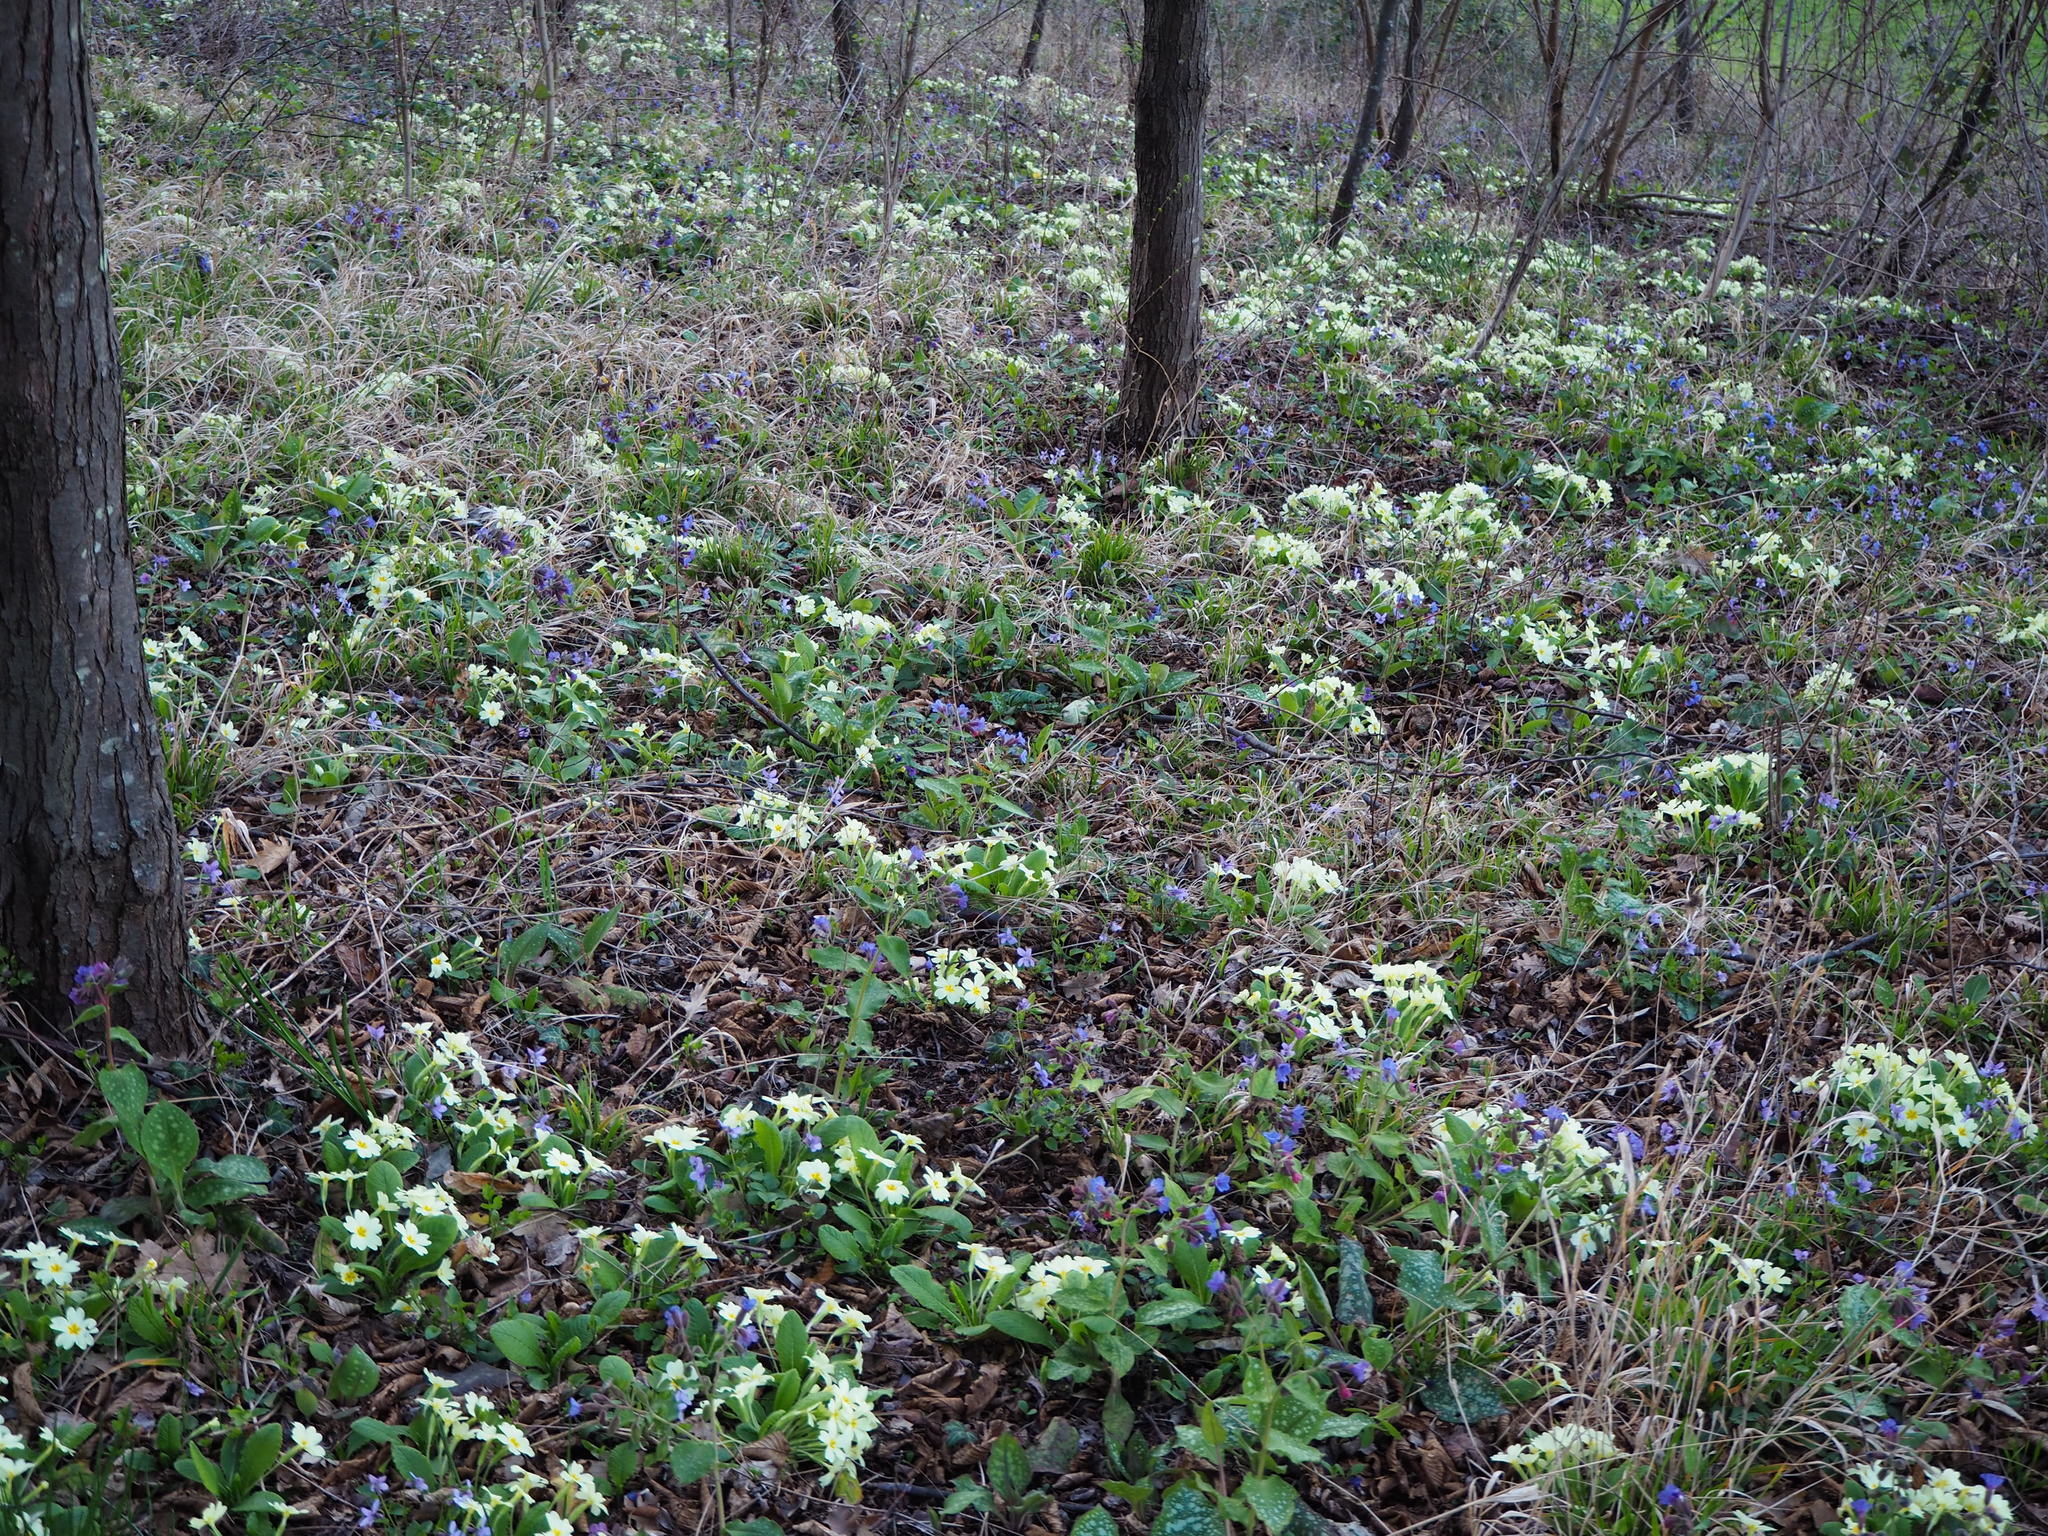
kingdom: Plantae
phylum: Tracheophyta
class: Magnoliopsida
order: Ericales
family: Primulaceae
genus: Primula
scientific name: Primula vulgaris
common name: Primrose
